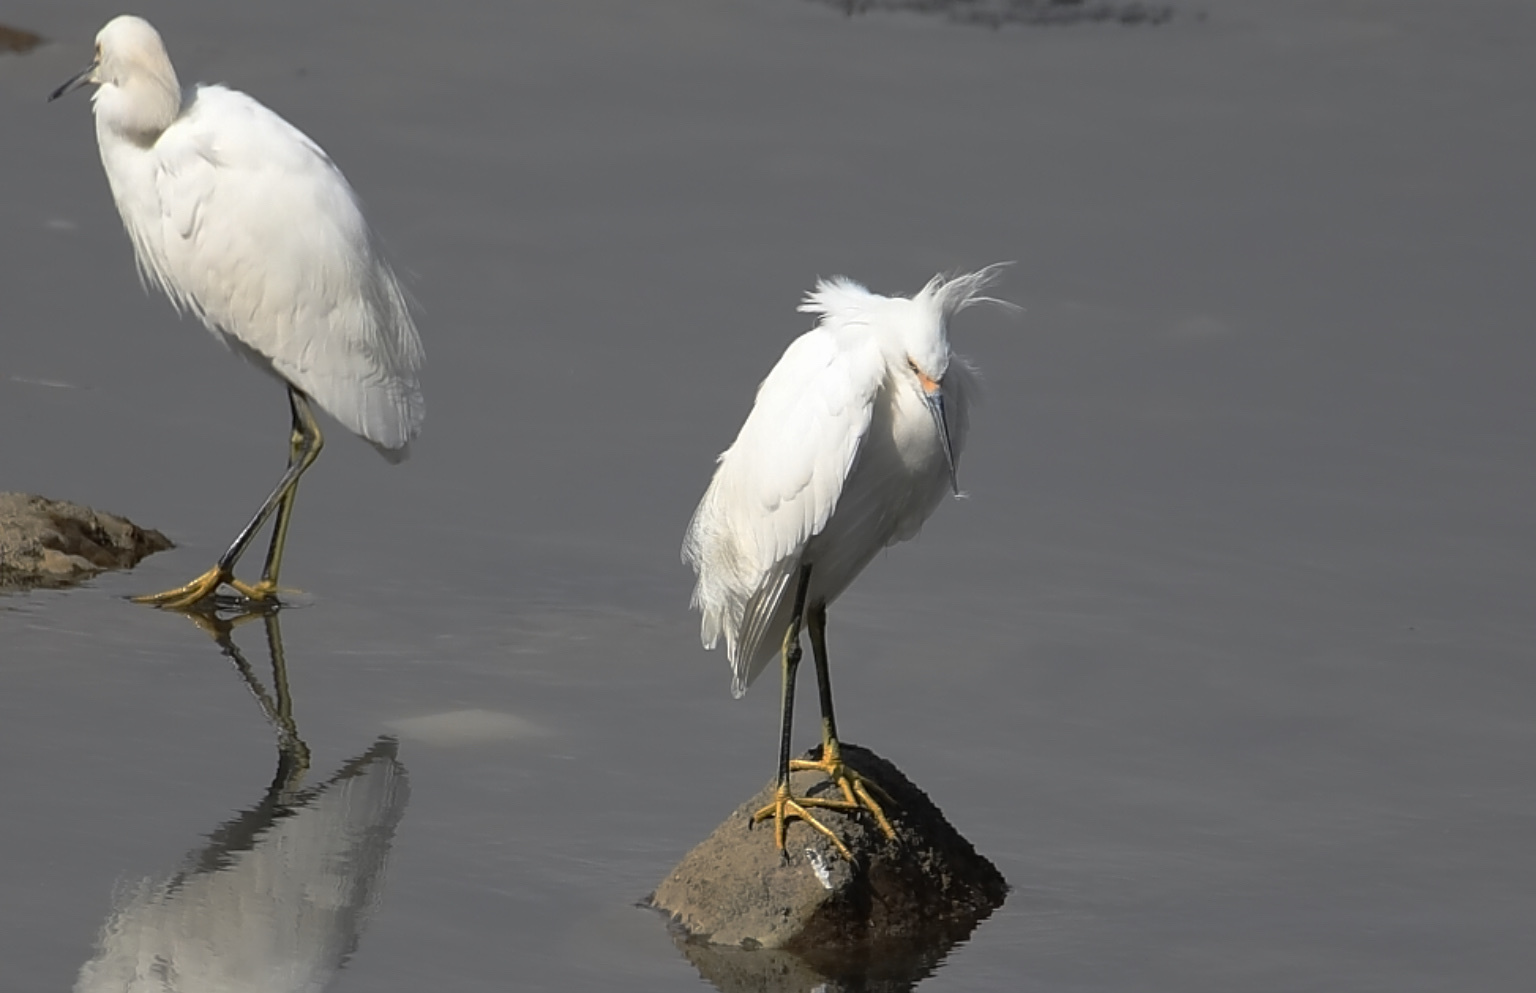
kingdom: Animalia
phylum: Chordata
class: Aves
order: Pelecaniformes
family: Ardeidae
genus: Egretta
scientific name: Egretta thula
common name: Snowy egret
